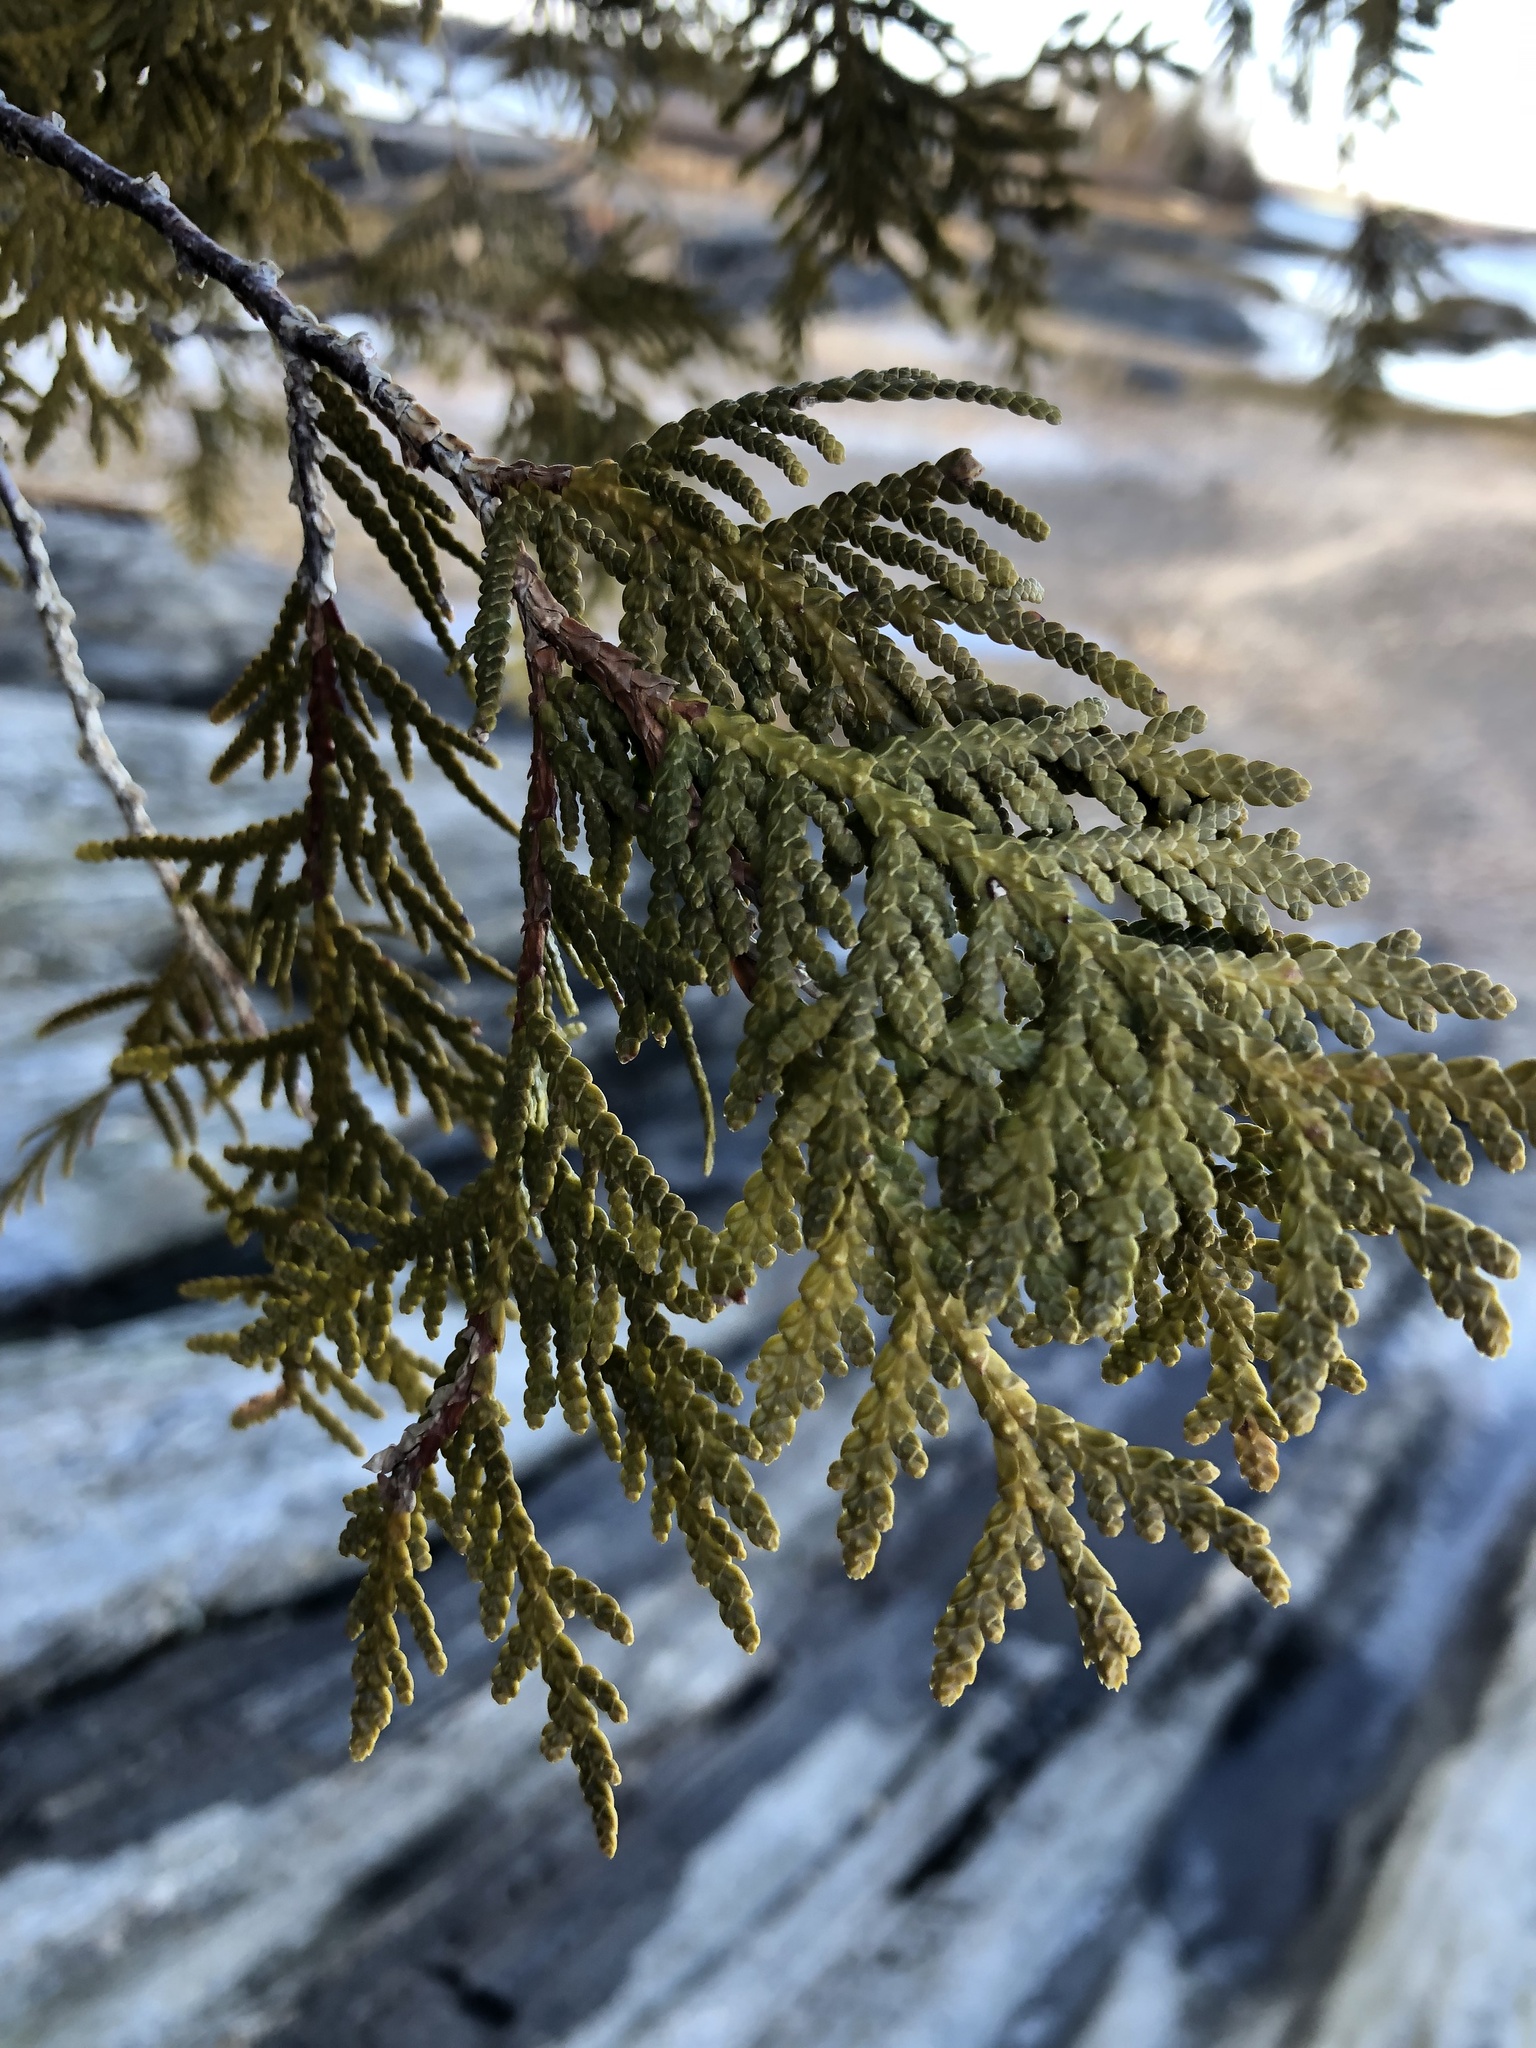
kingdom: Plantae
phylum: Tracheophyta
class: Pinopsida
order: Pinales
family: Cupressaceae
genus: Thuja
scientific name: Thuja occidentalis
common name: Northern white-cedar
